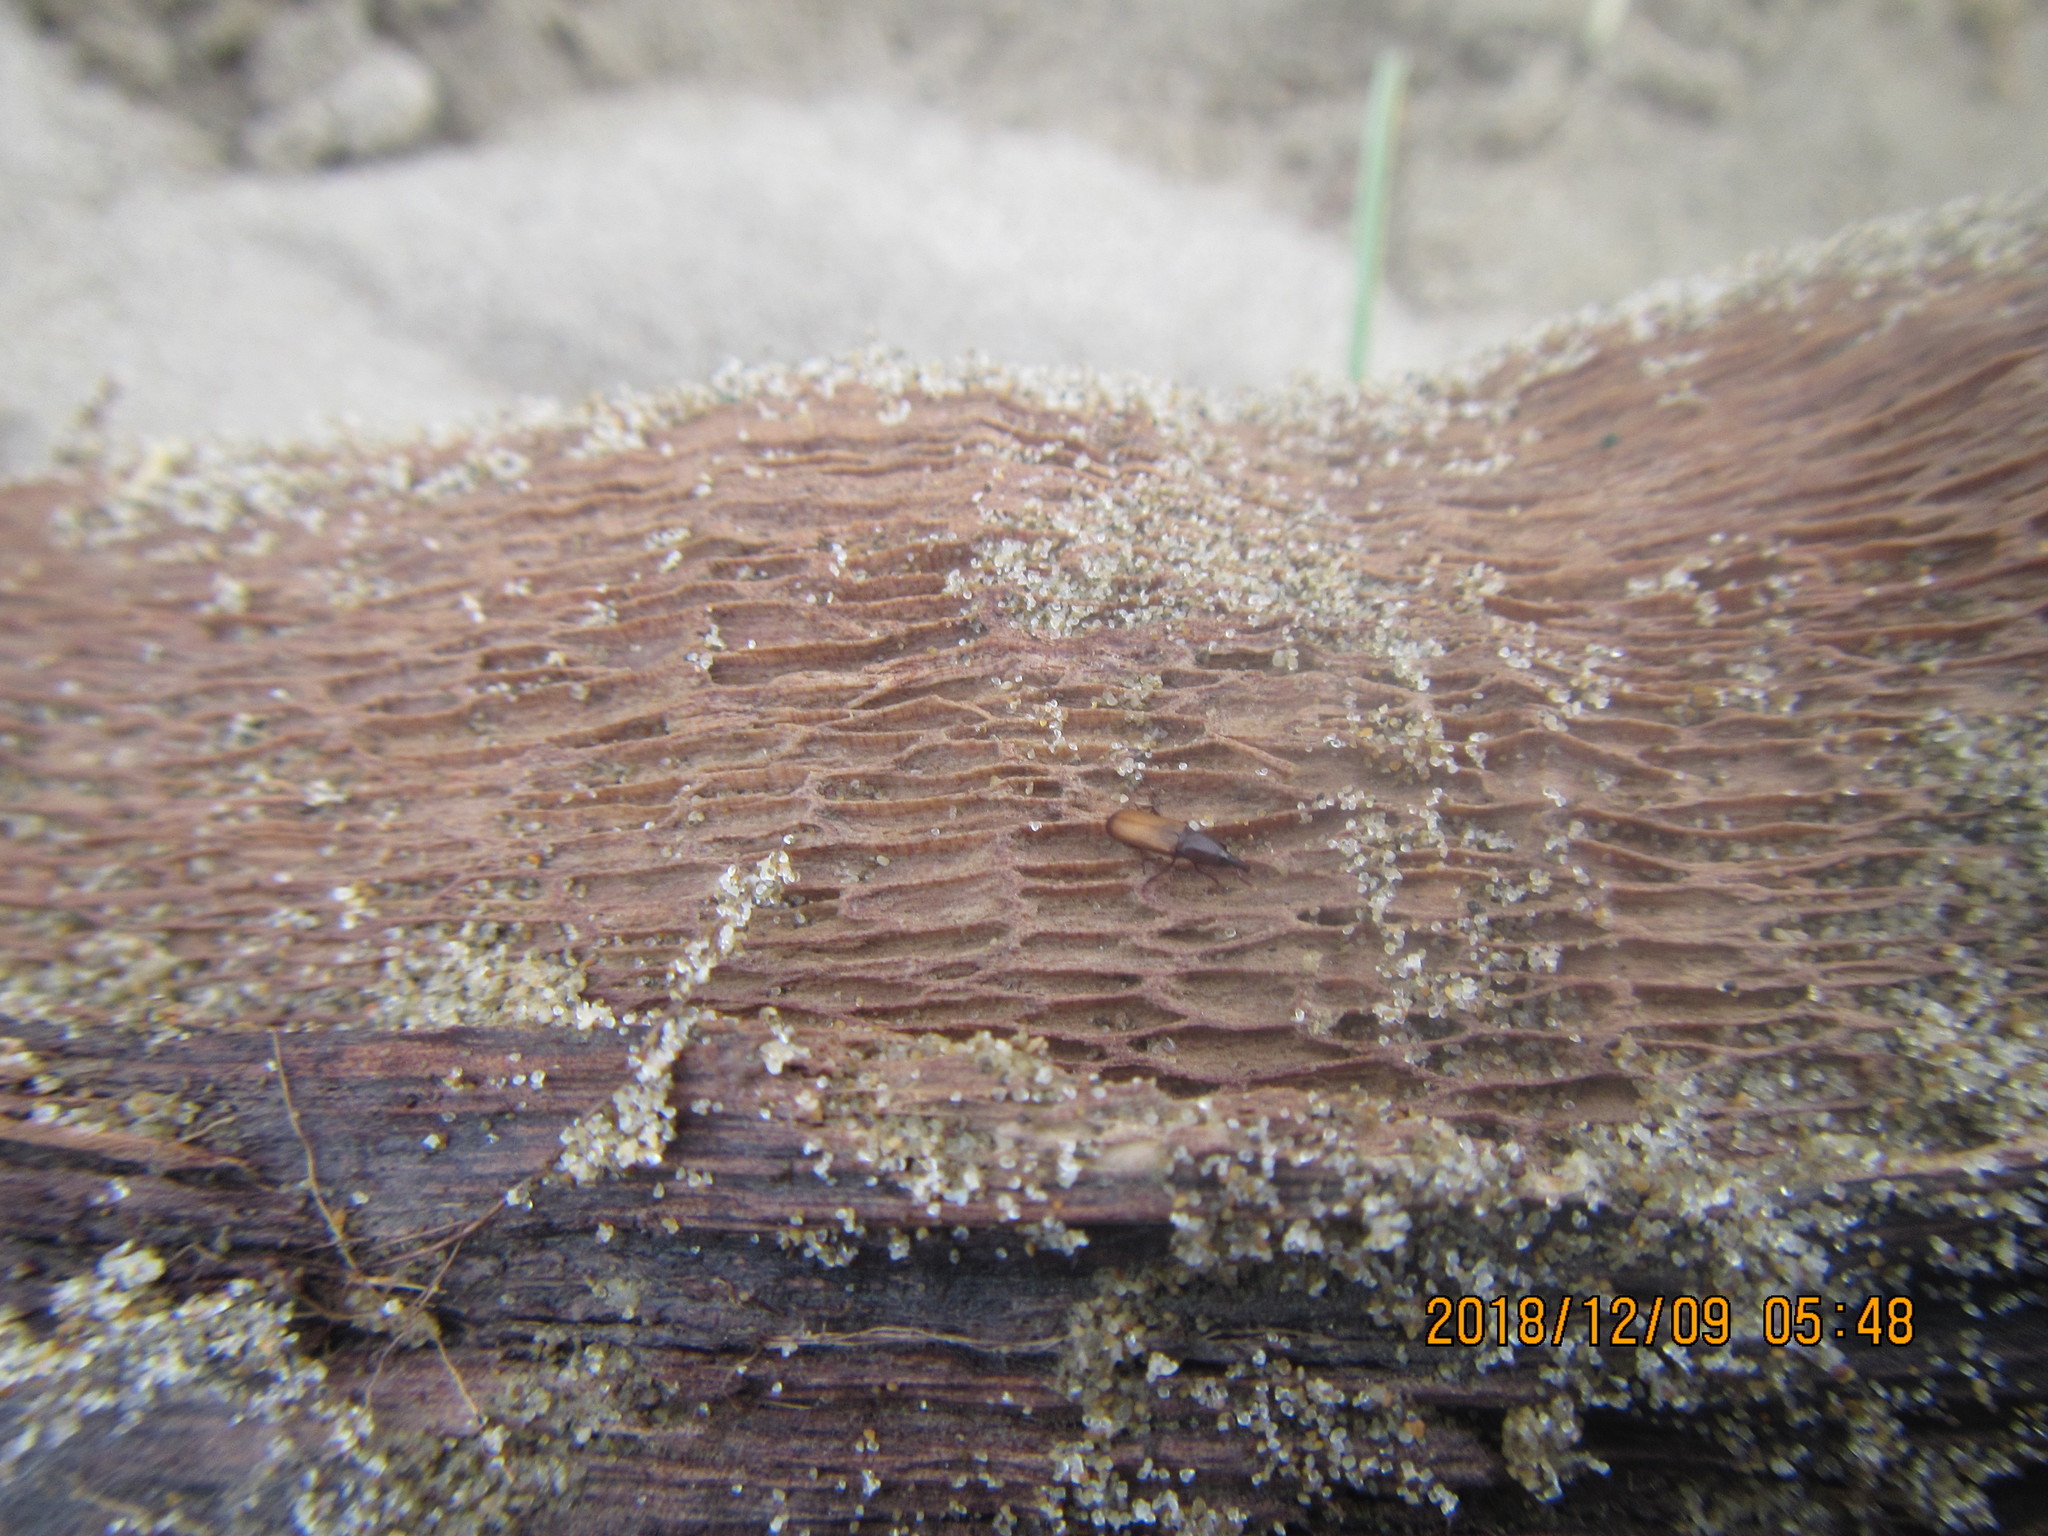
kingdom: Animalia
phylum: Arthropoda
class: Insecta
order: Coleoptera
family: Curculionidae
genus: Mesites
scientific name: Mesites pallidipennis
